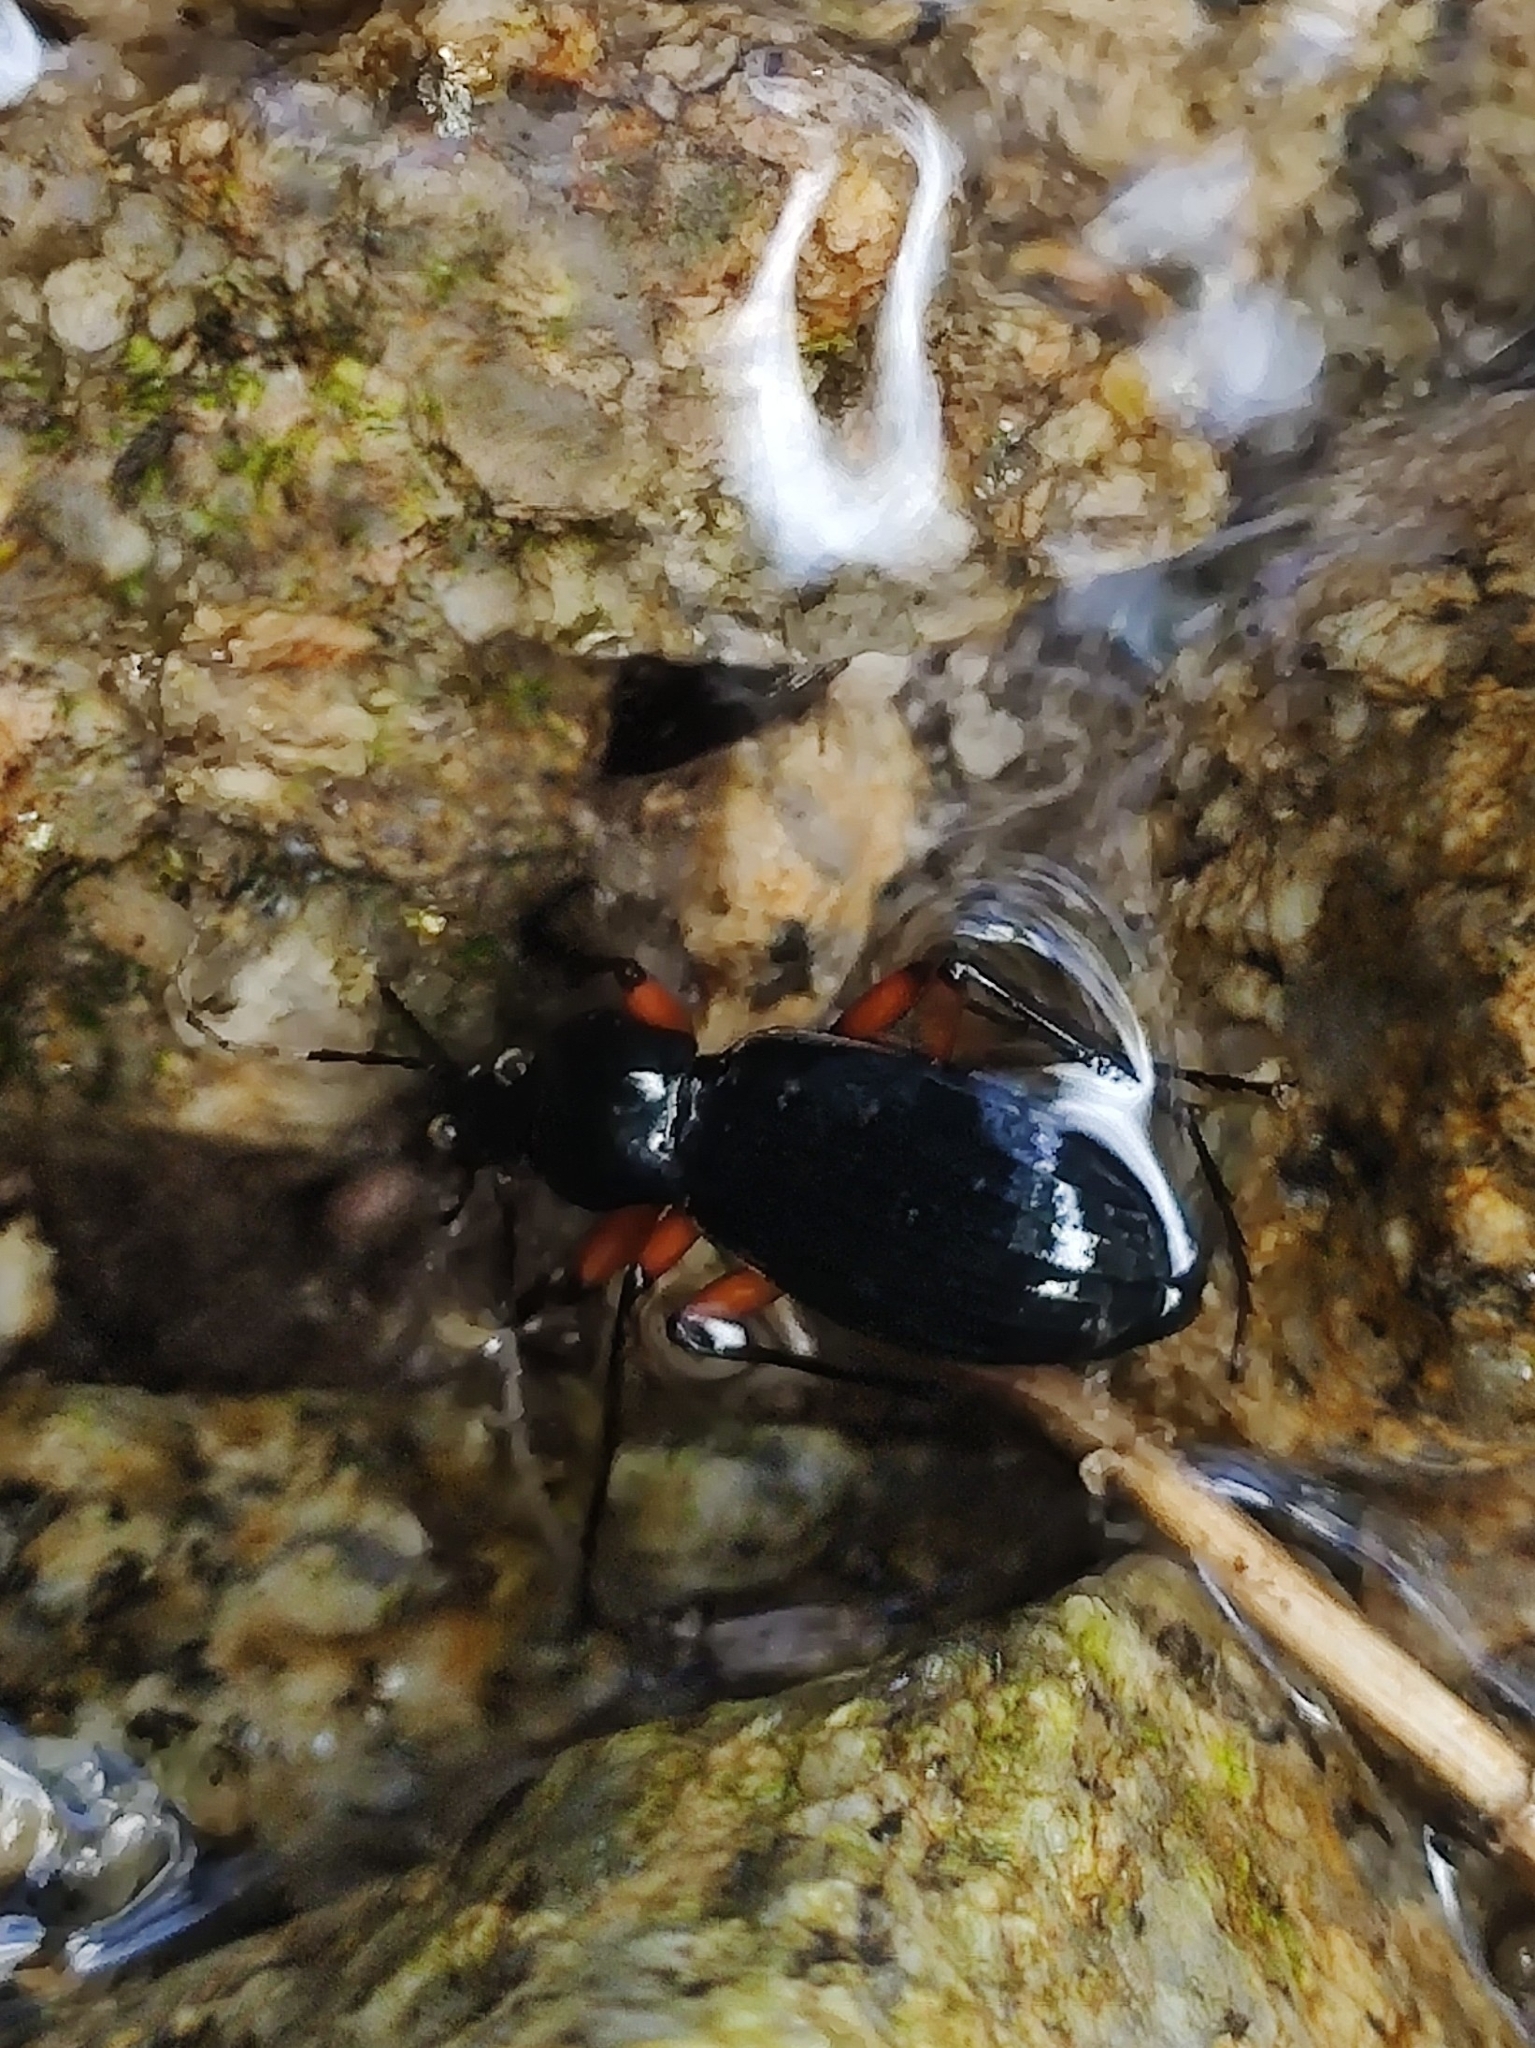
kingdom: Animalia
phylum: Arthropoda
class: Insecta
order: Coleoptera
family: Carabidae
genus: Carabus
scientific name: Carabus galicianus
